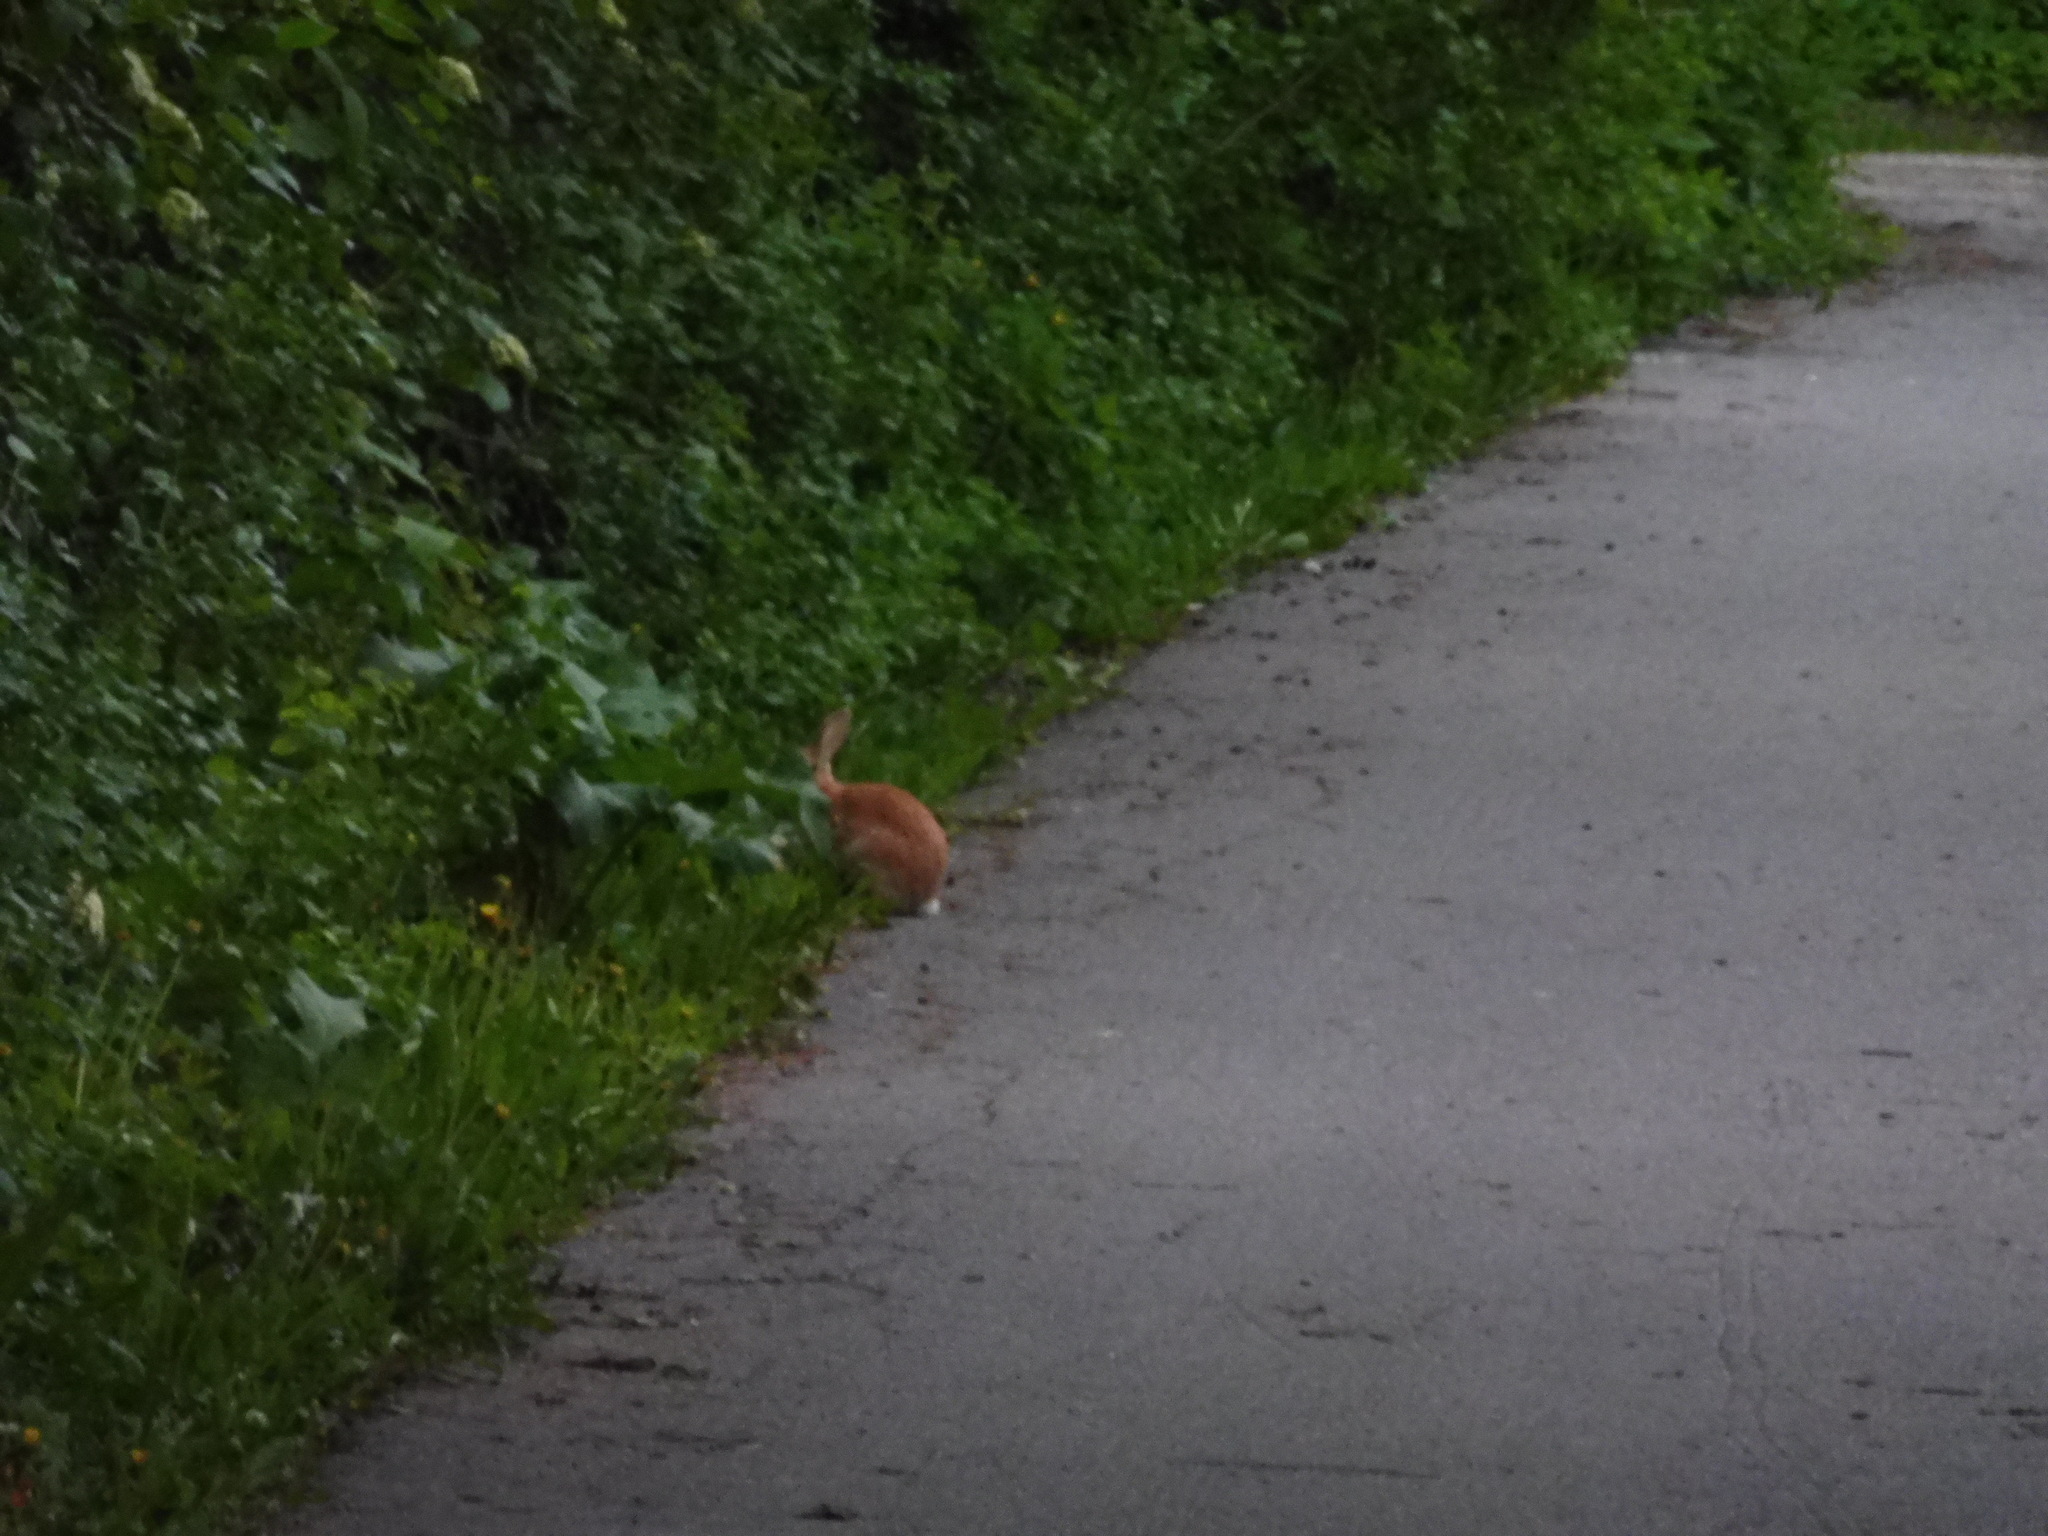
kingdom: Animalia
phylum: Chordata
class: Mammalia
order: Lagomorpha
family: Leporidae
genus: Oryctolagus
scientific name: Oryctolagus cuniculus
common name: European rabbit
